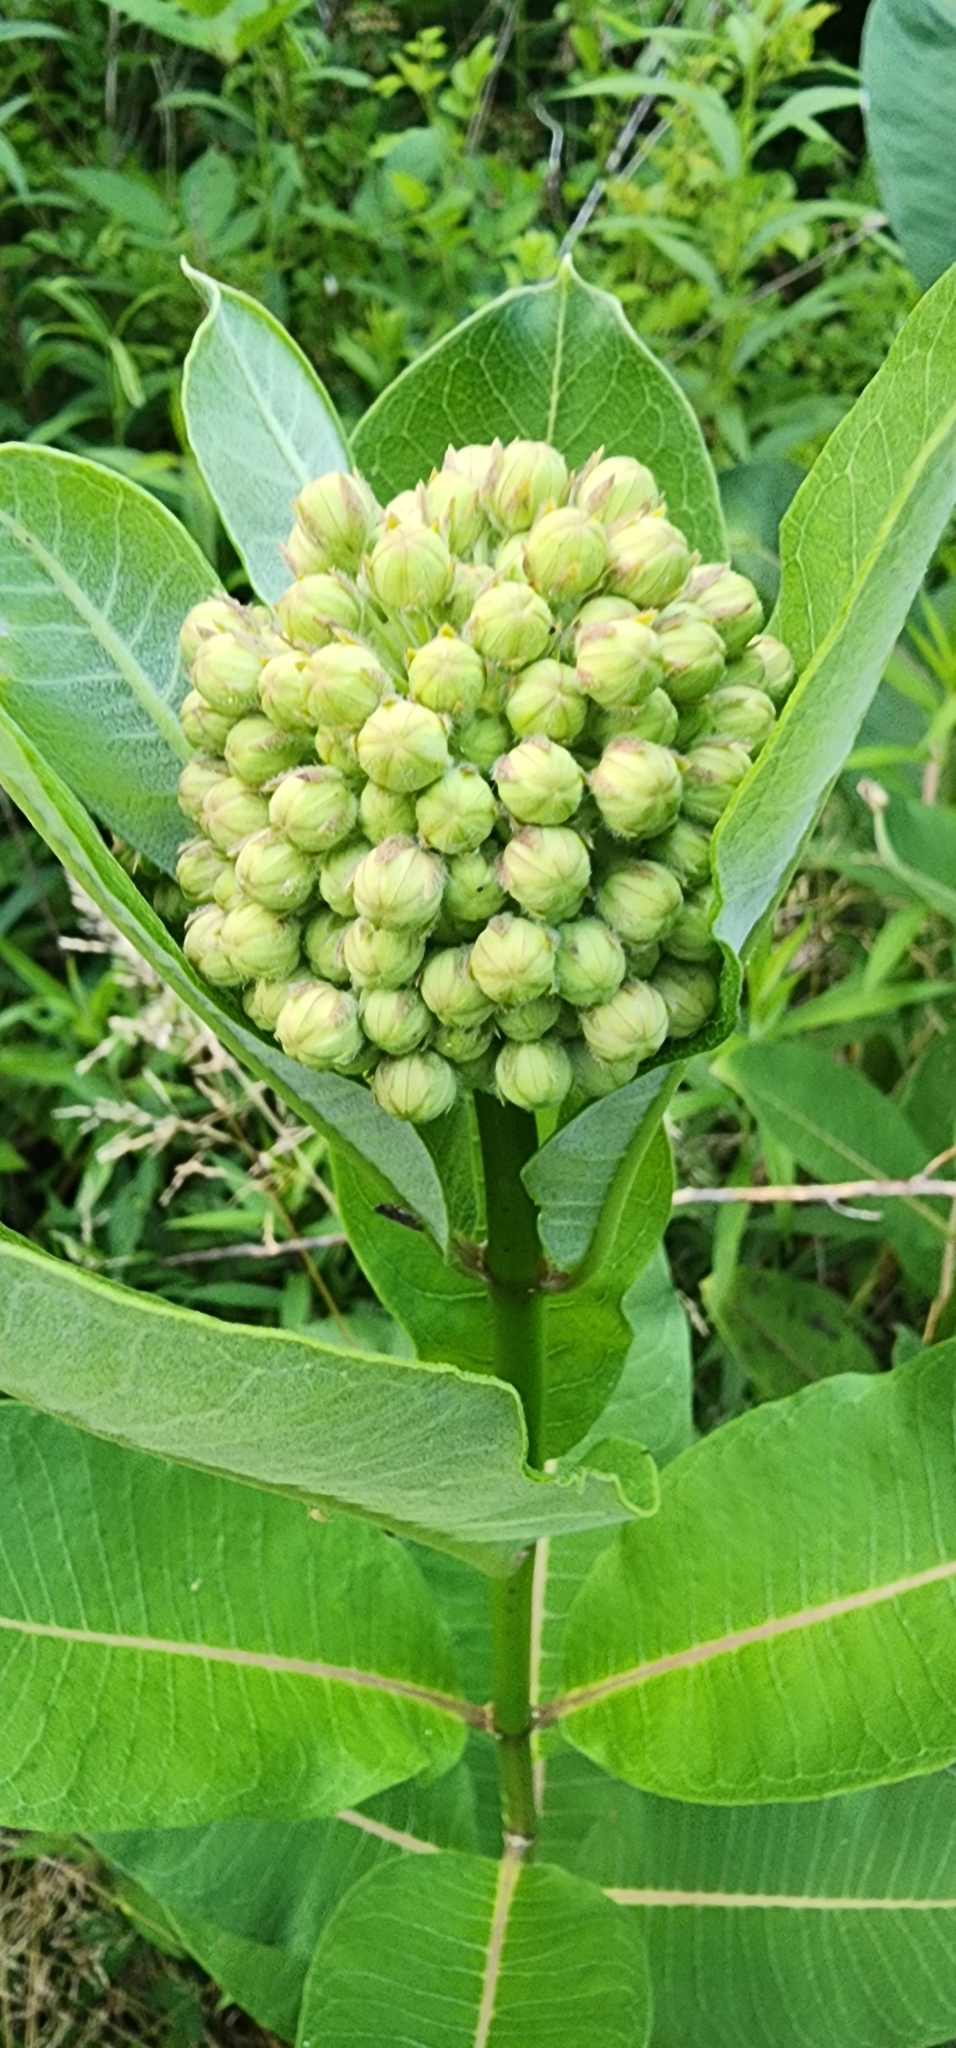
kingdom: Plantae
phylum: Tracheophyta
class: Magnoliopsida
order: Gentianales
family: Apocynaceae
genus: Asclepias
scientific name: Asclepias syriaca
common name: Common milkweed
